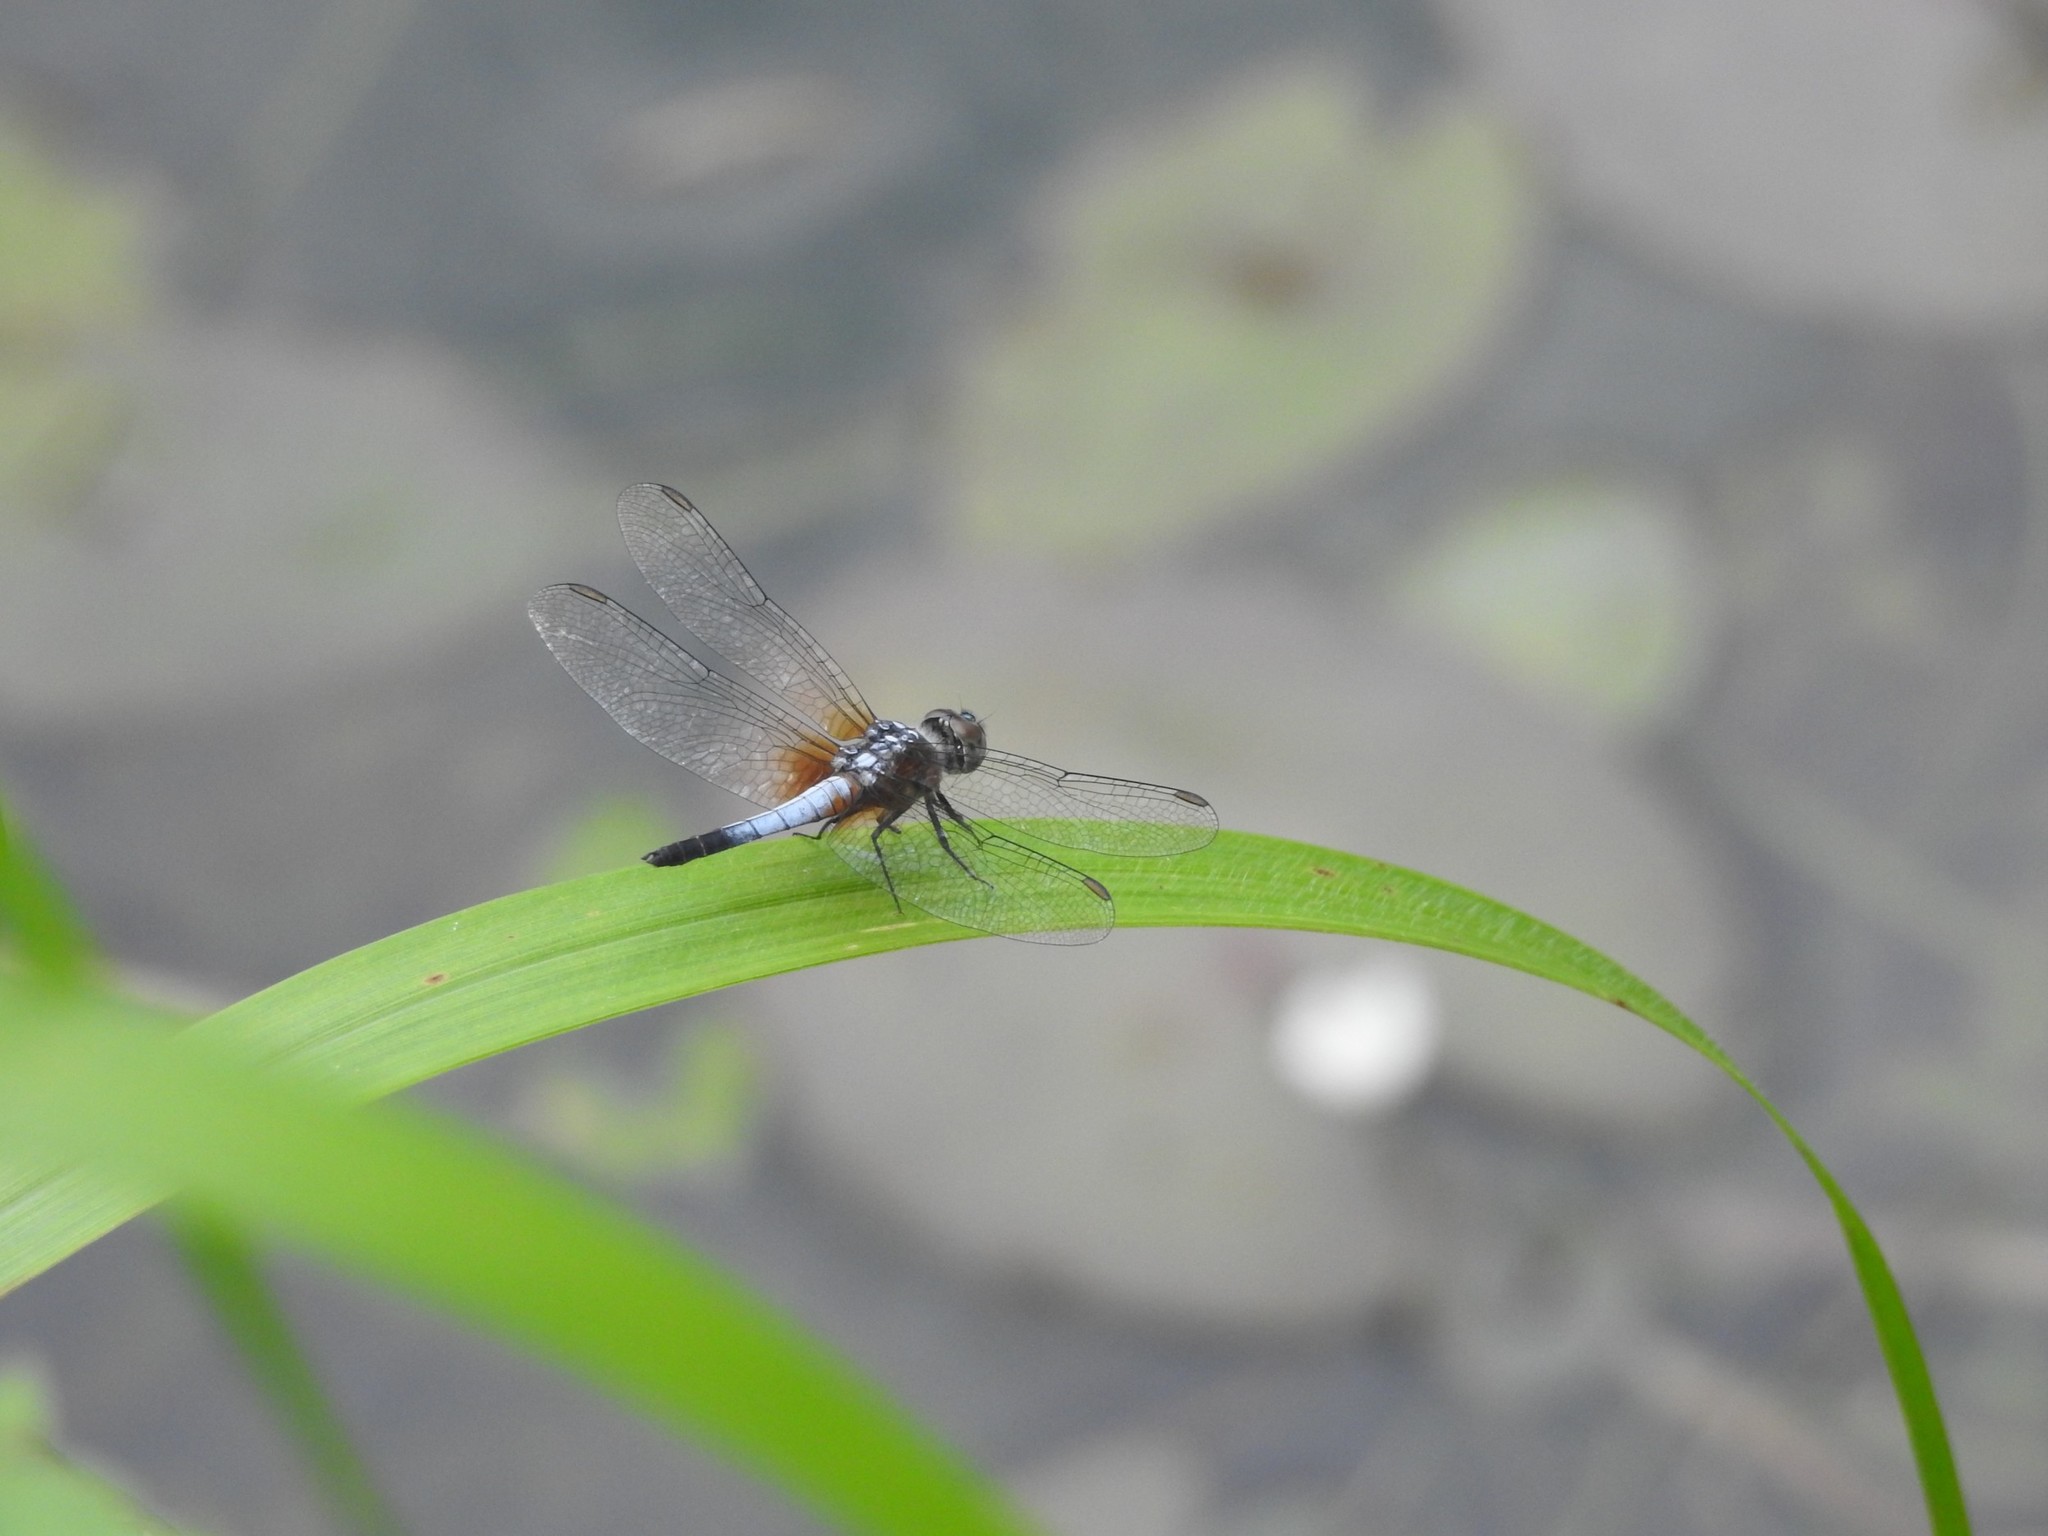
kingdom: Animalia
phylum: Arthropoda
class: Insecta
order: Odonata
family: Libellulidae
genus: Brachydiplax
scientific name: Brachydiplax chalybea
